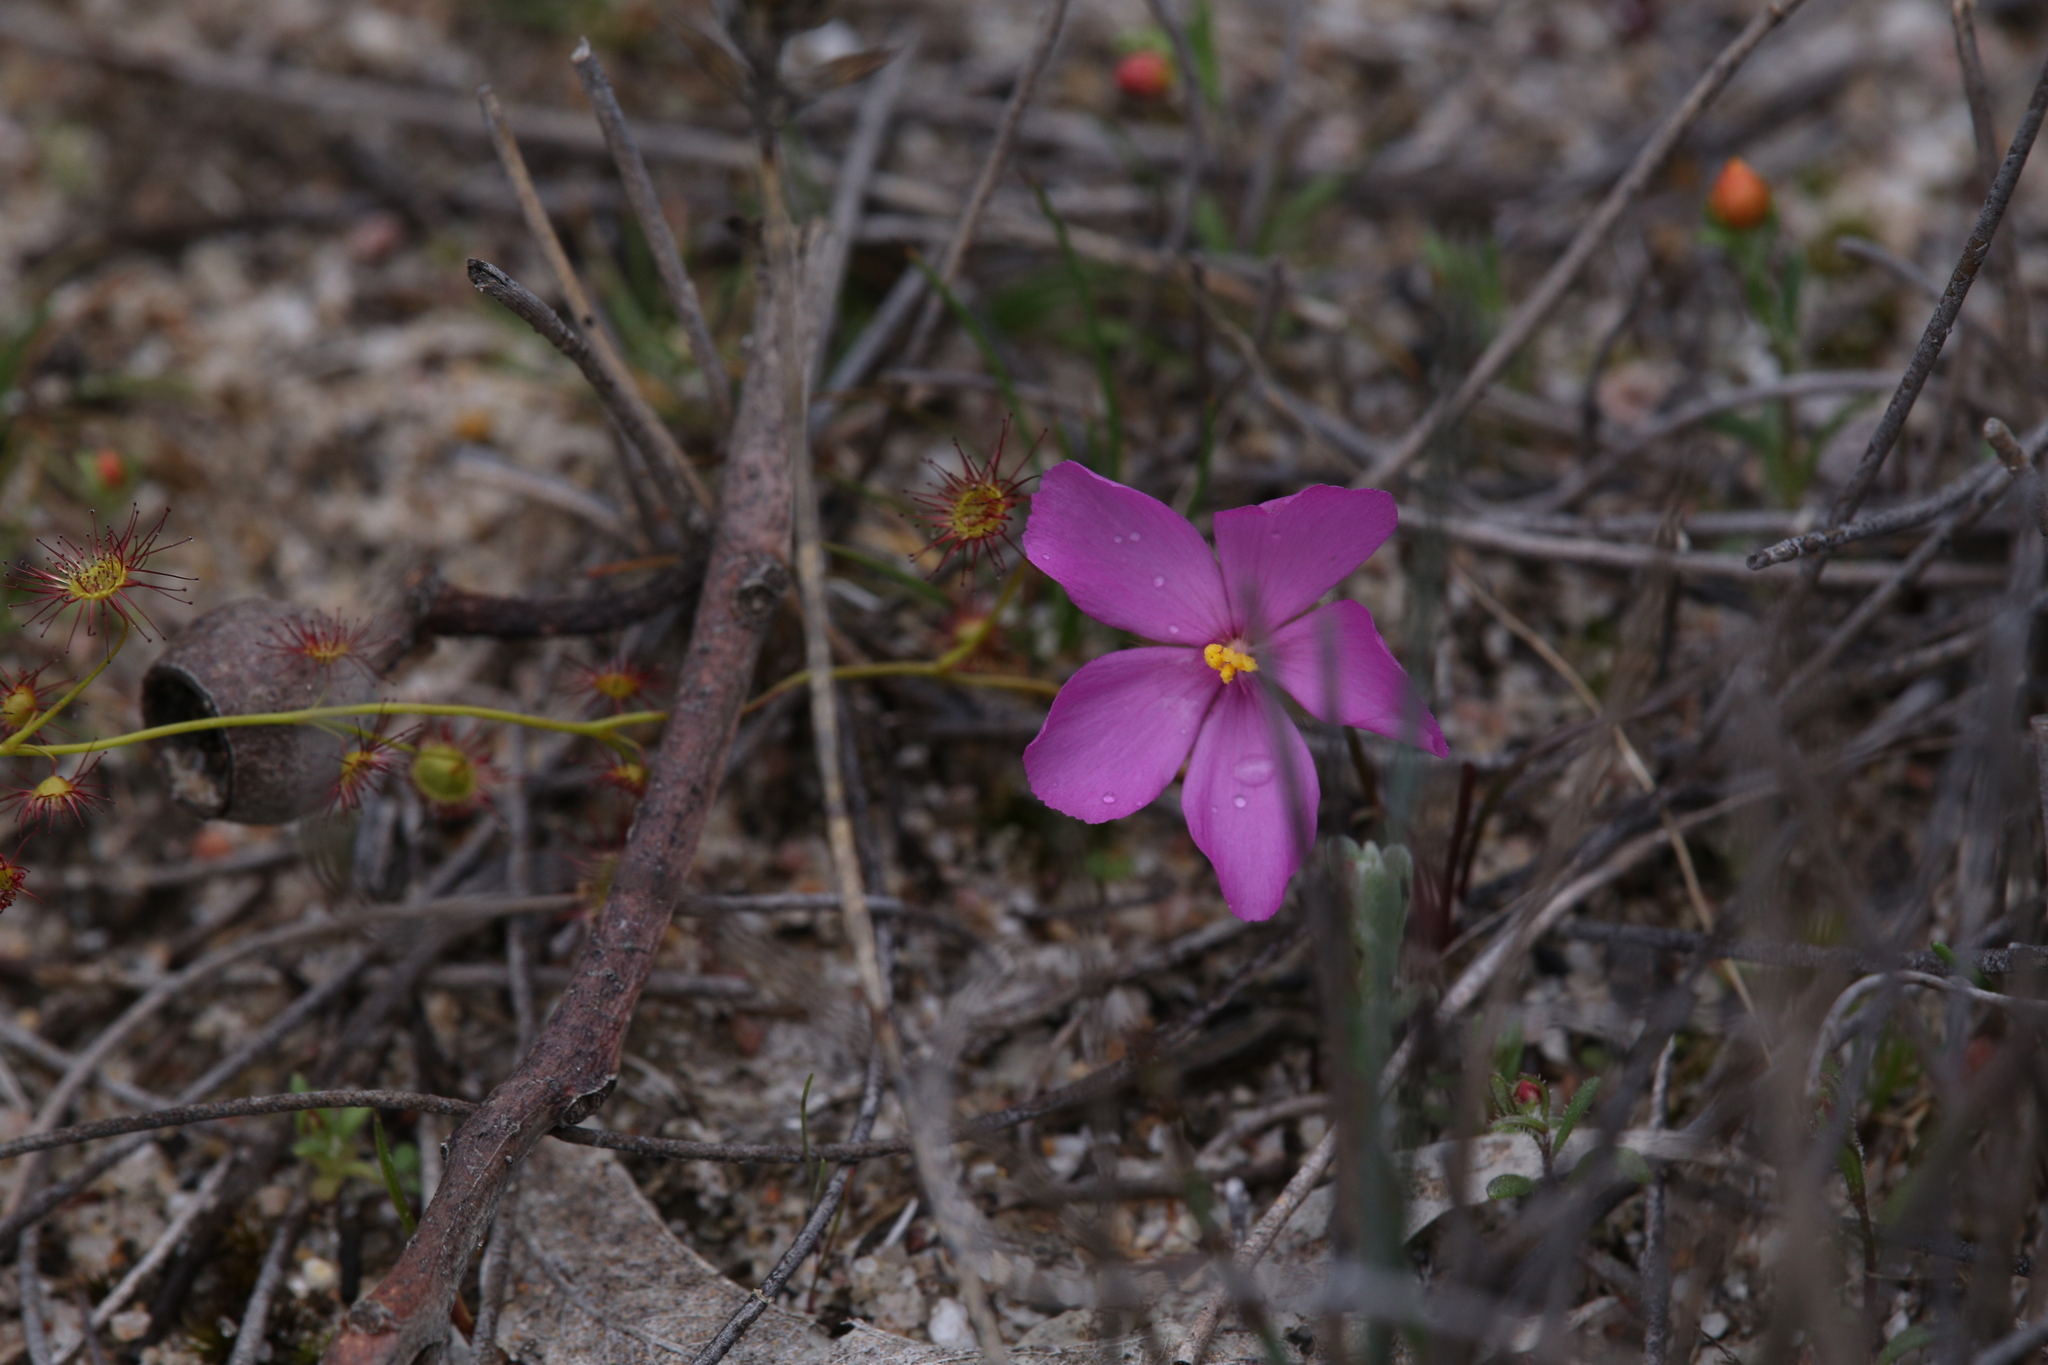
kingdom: Plantae
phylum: Tracheophyta
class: Magnoliopsida
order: Caryophyllales
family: Droseraceae
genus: Drosera
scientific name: Drosera menziesii
